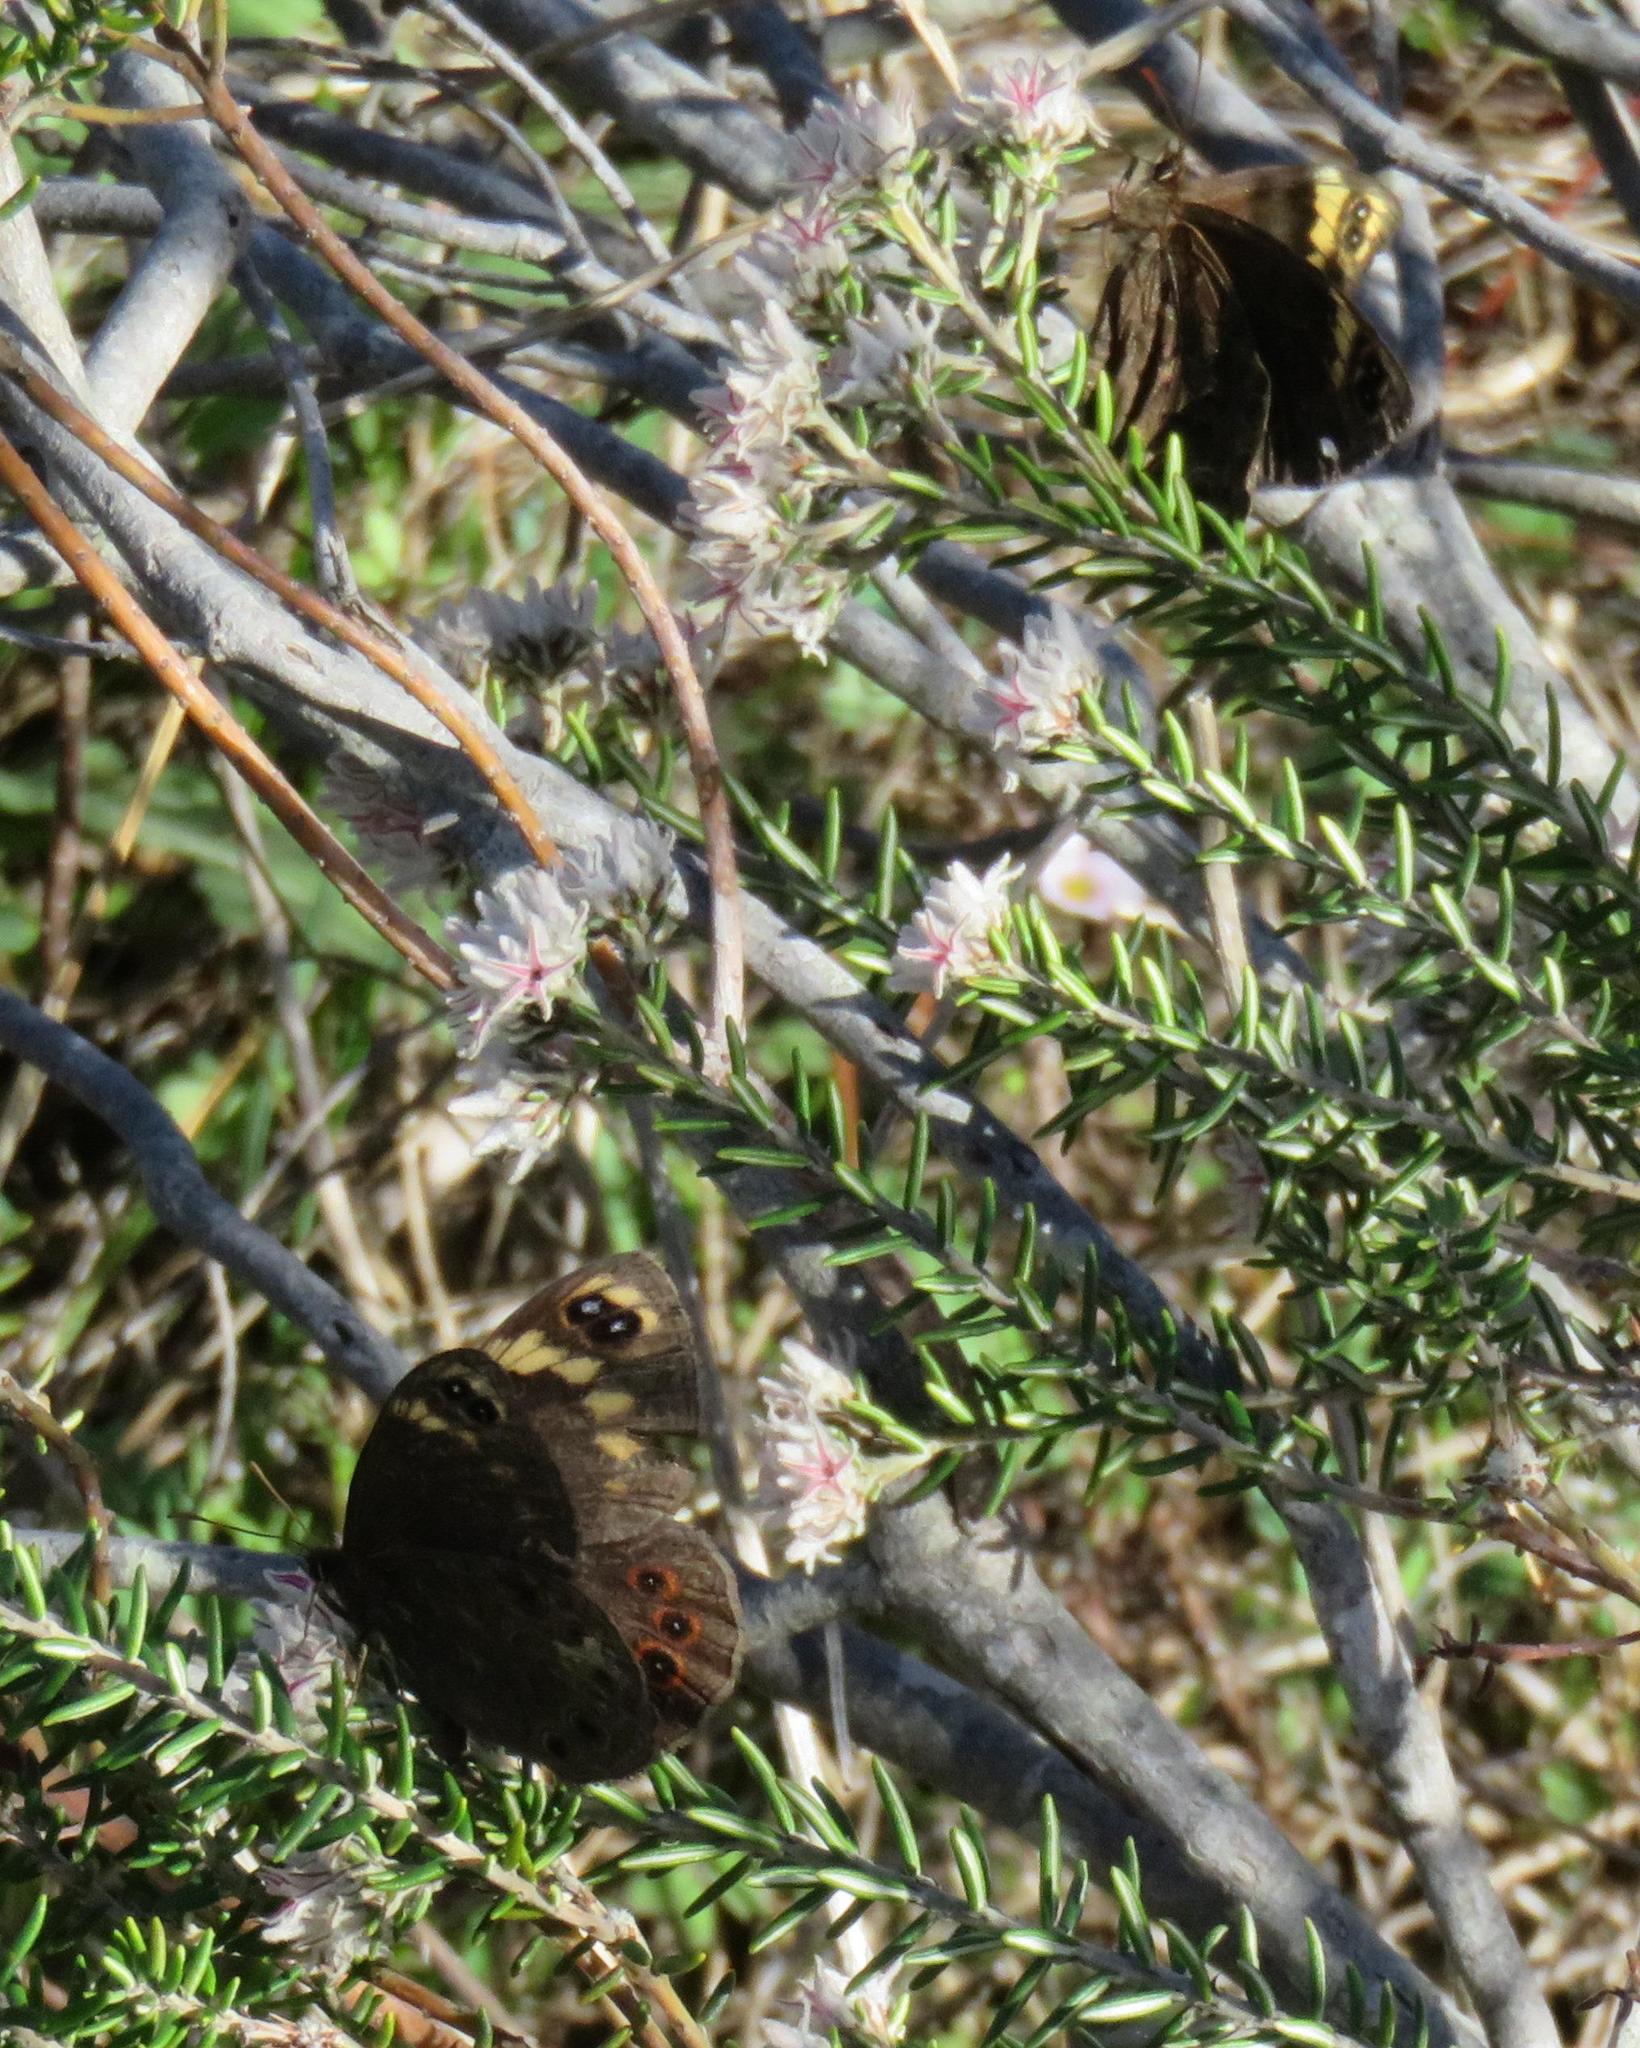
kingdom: Plantae
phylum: Tracheophyta
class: Magnoliopsida
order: Rosales
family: Rhamnaceae
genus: Trichocephalus
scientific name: Trichocephalus stipularis
